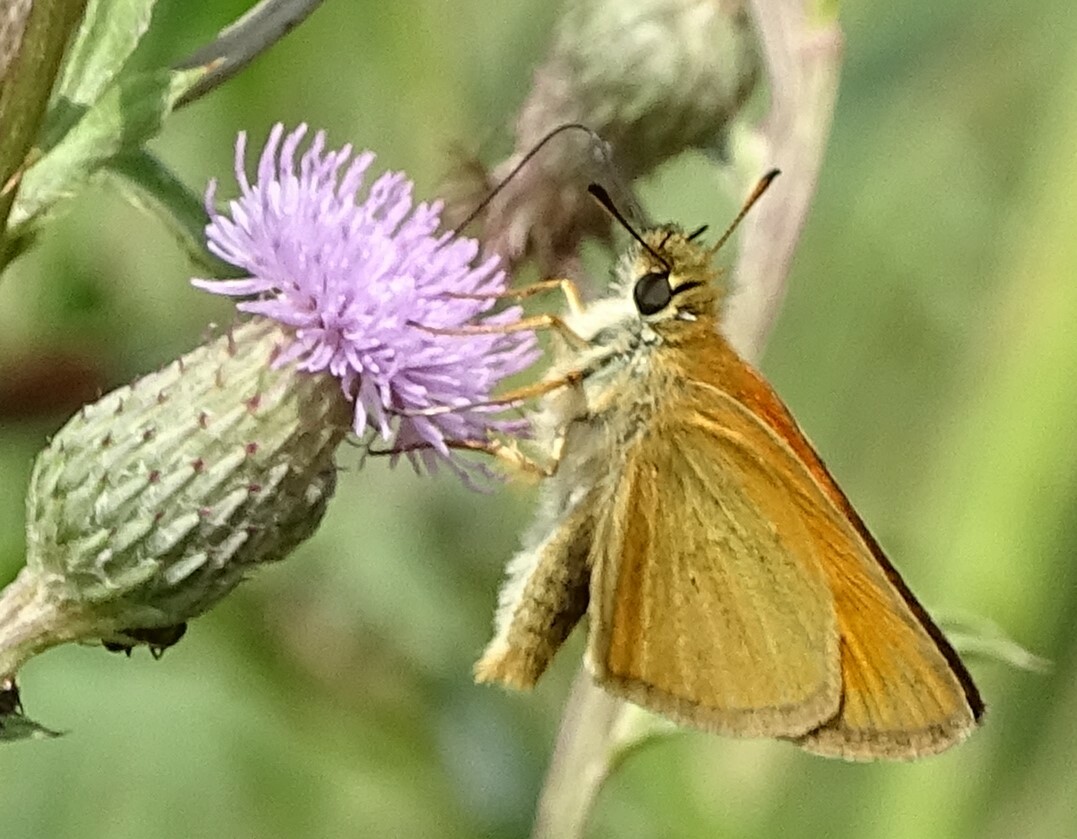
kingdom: Animalia
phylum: Arthropoda
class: Insecta
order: Lepidoptera
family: Hesperiidae
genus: Thymelicus
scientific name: Thymelicus lineola
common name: Essex skipper
